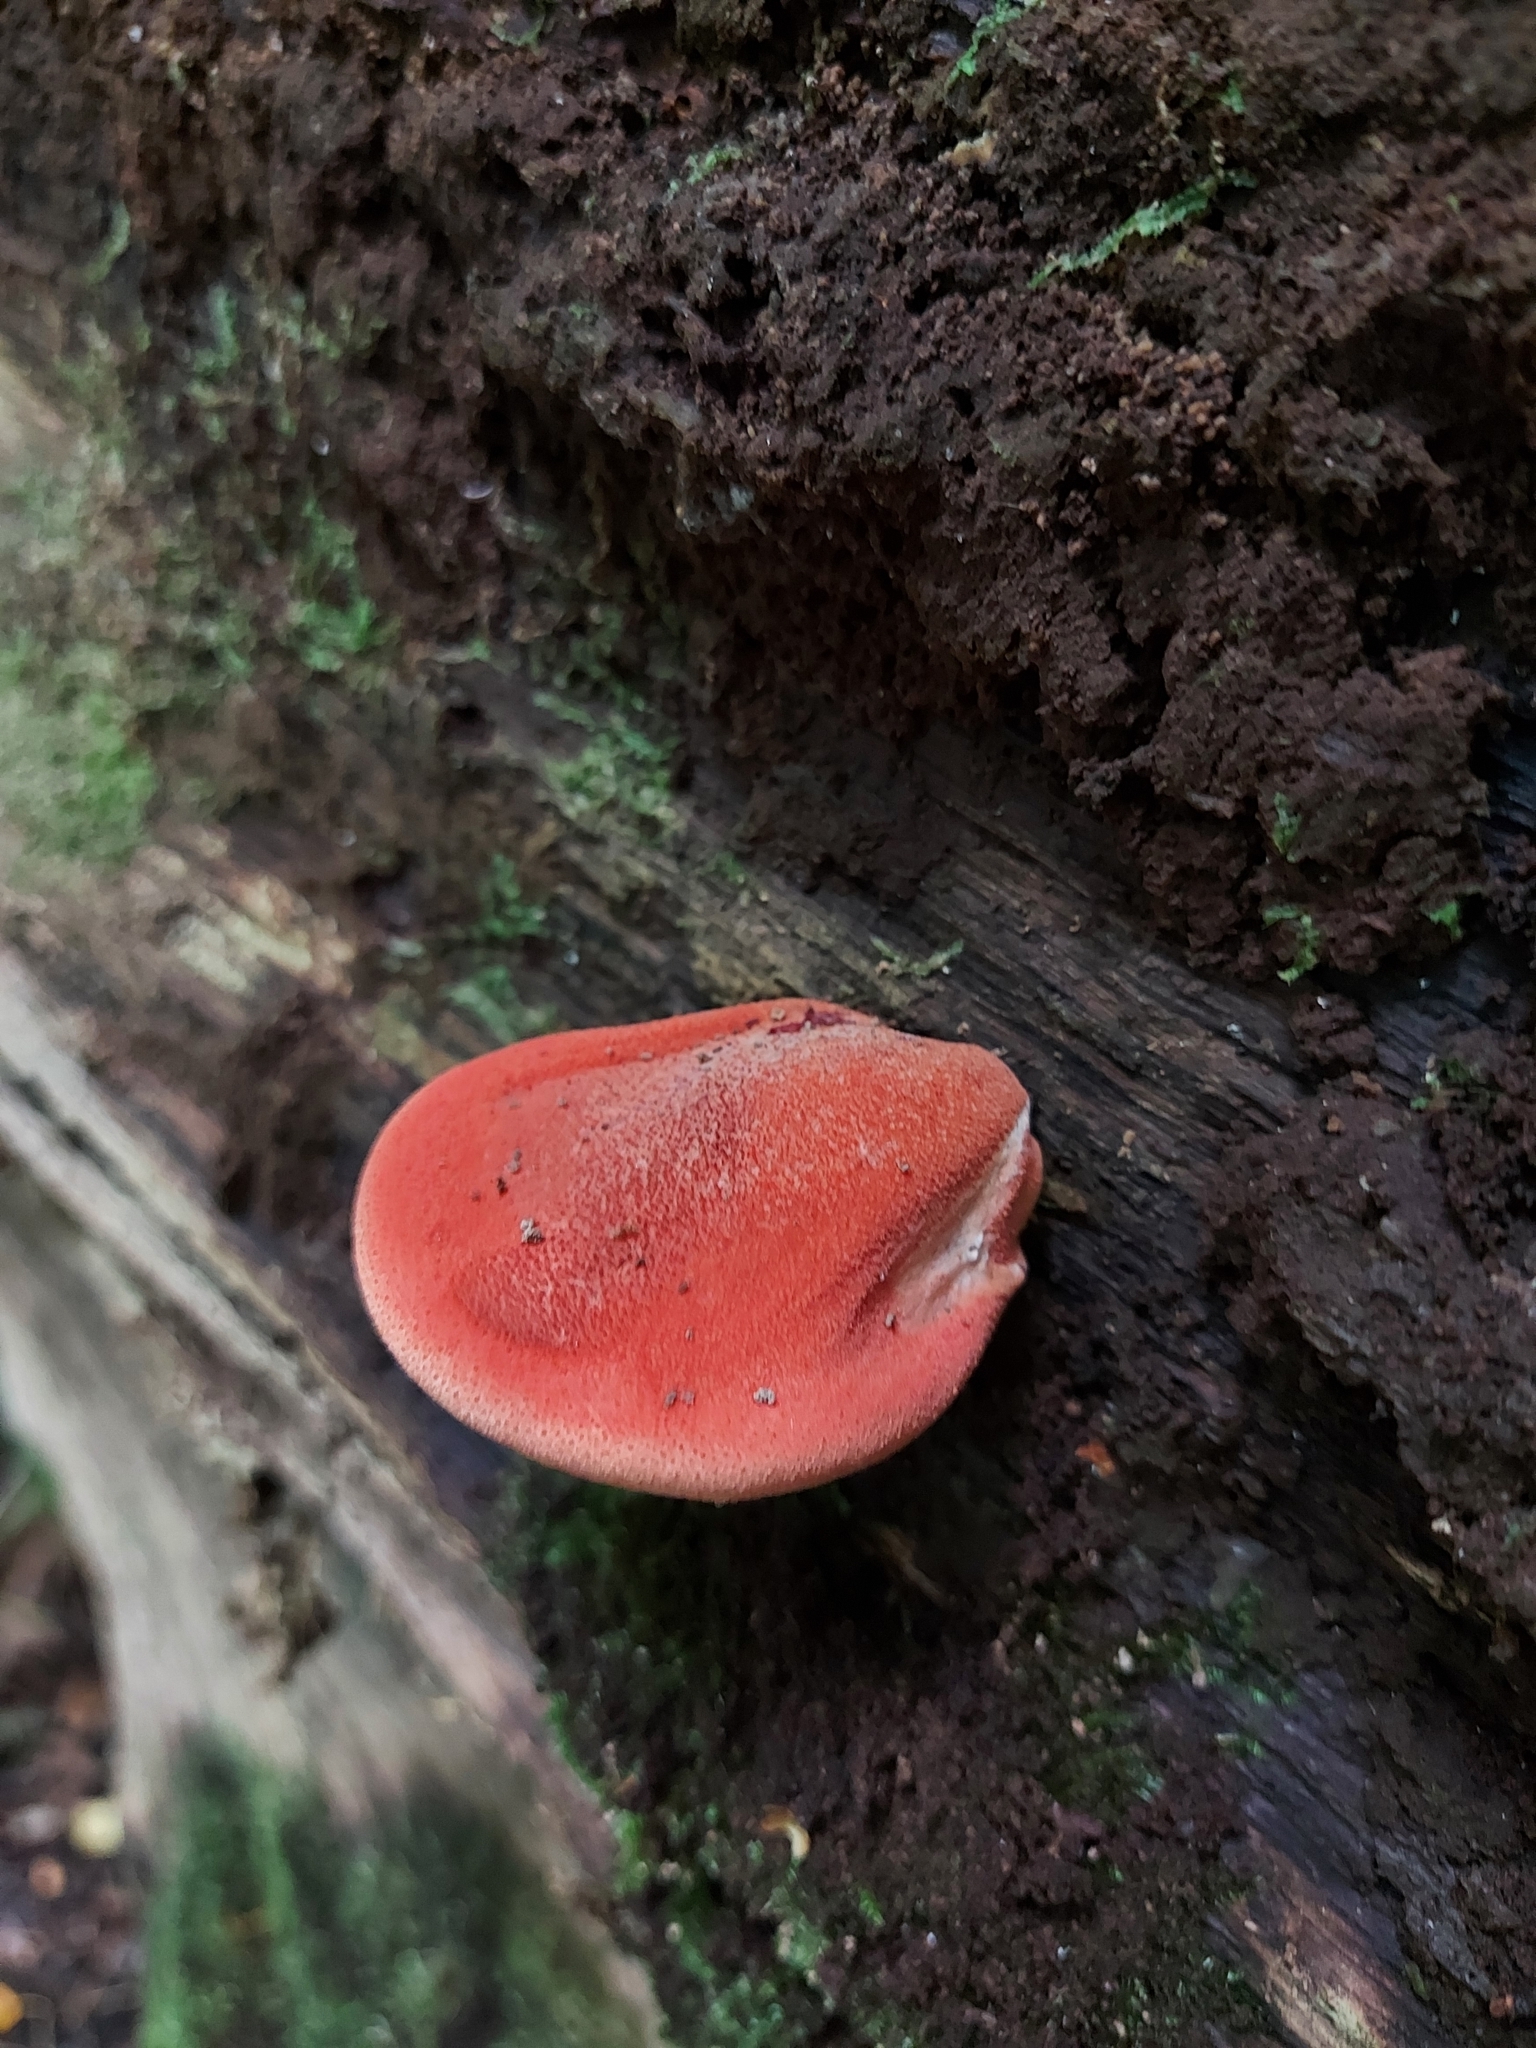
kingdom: Fungi
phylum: Basidiomycota
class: Agaricomycetes
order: Agaricales
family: Fistulinaceae
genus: Fistulina
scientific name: Fistulina hepatica
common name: Beef-steak fungus
